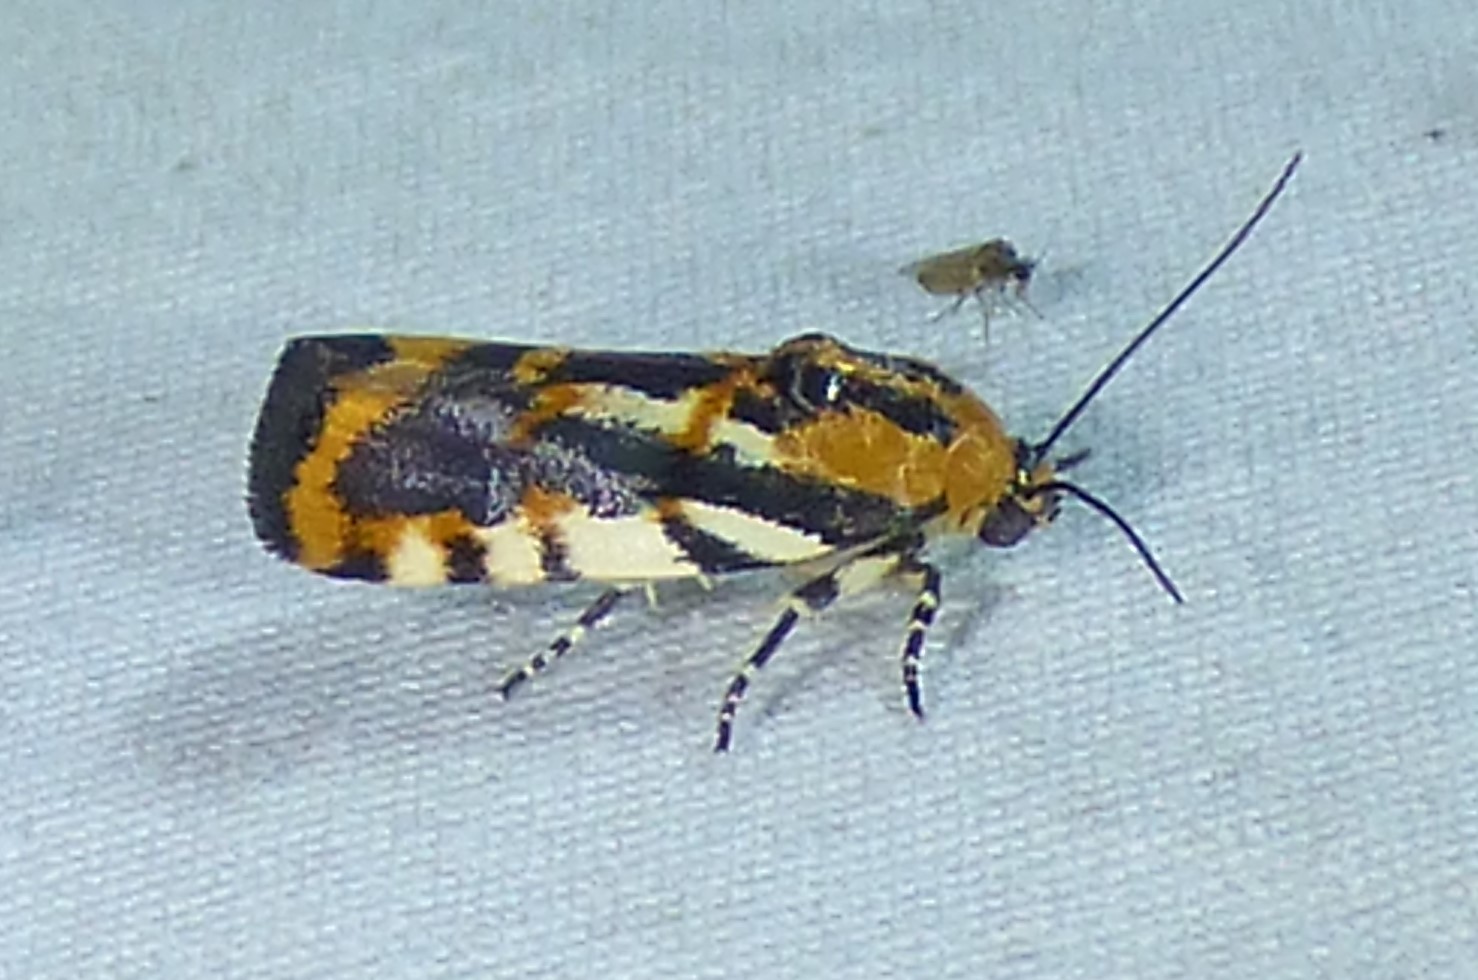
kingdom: Animalia
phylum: Arthropoda
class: Insecta
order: Lepidoptera
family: Noctuidae
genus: Acontia
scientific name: Acontia leo
